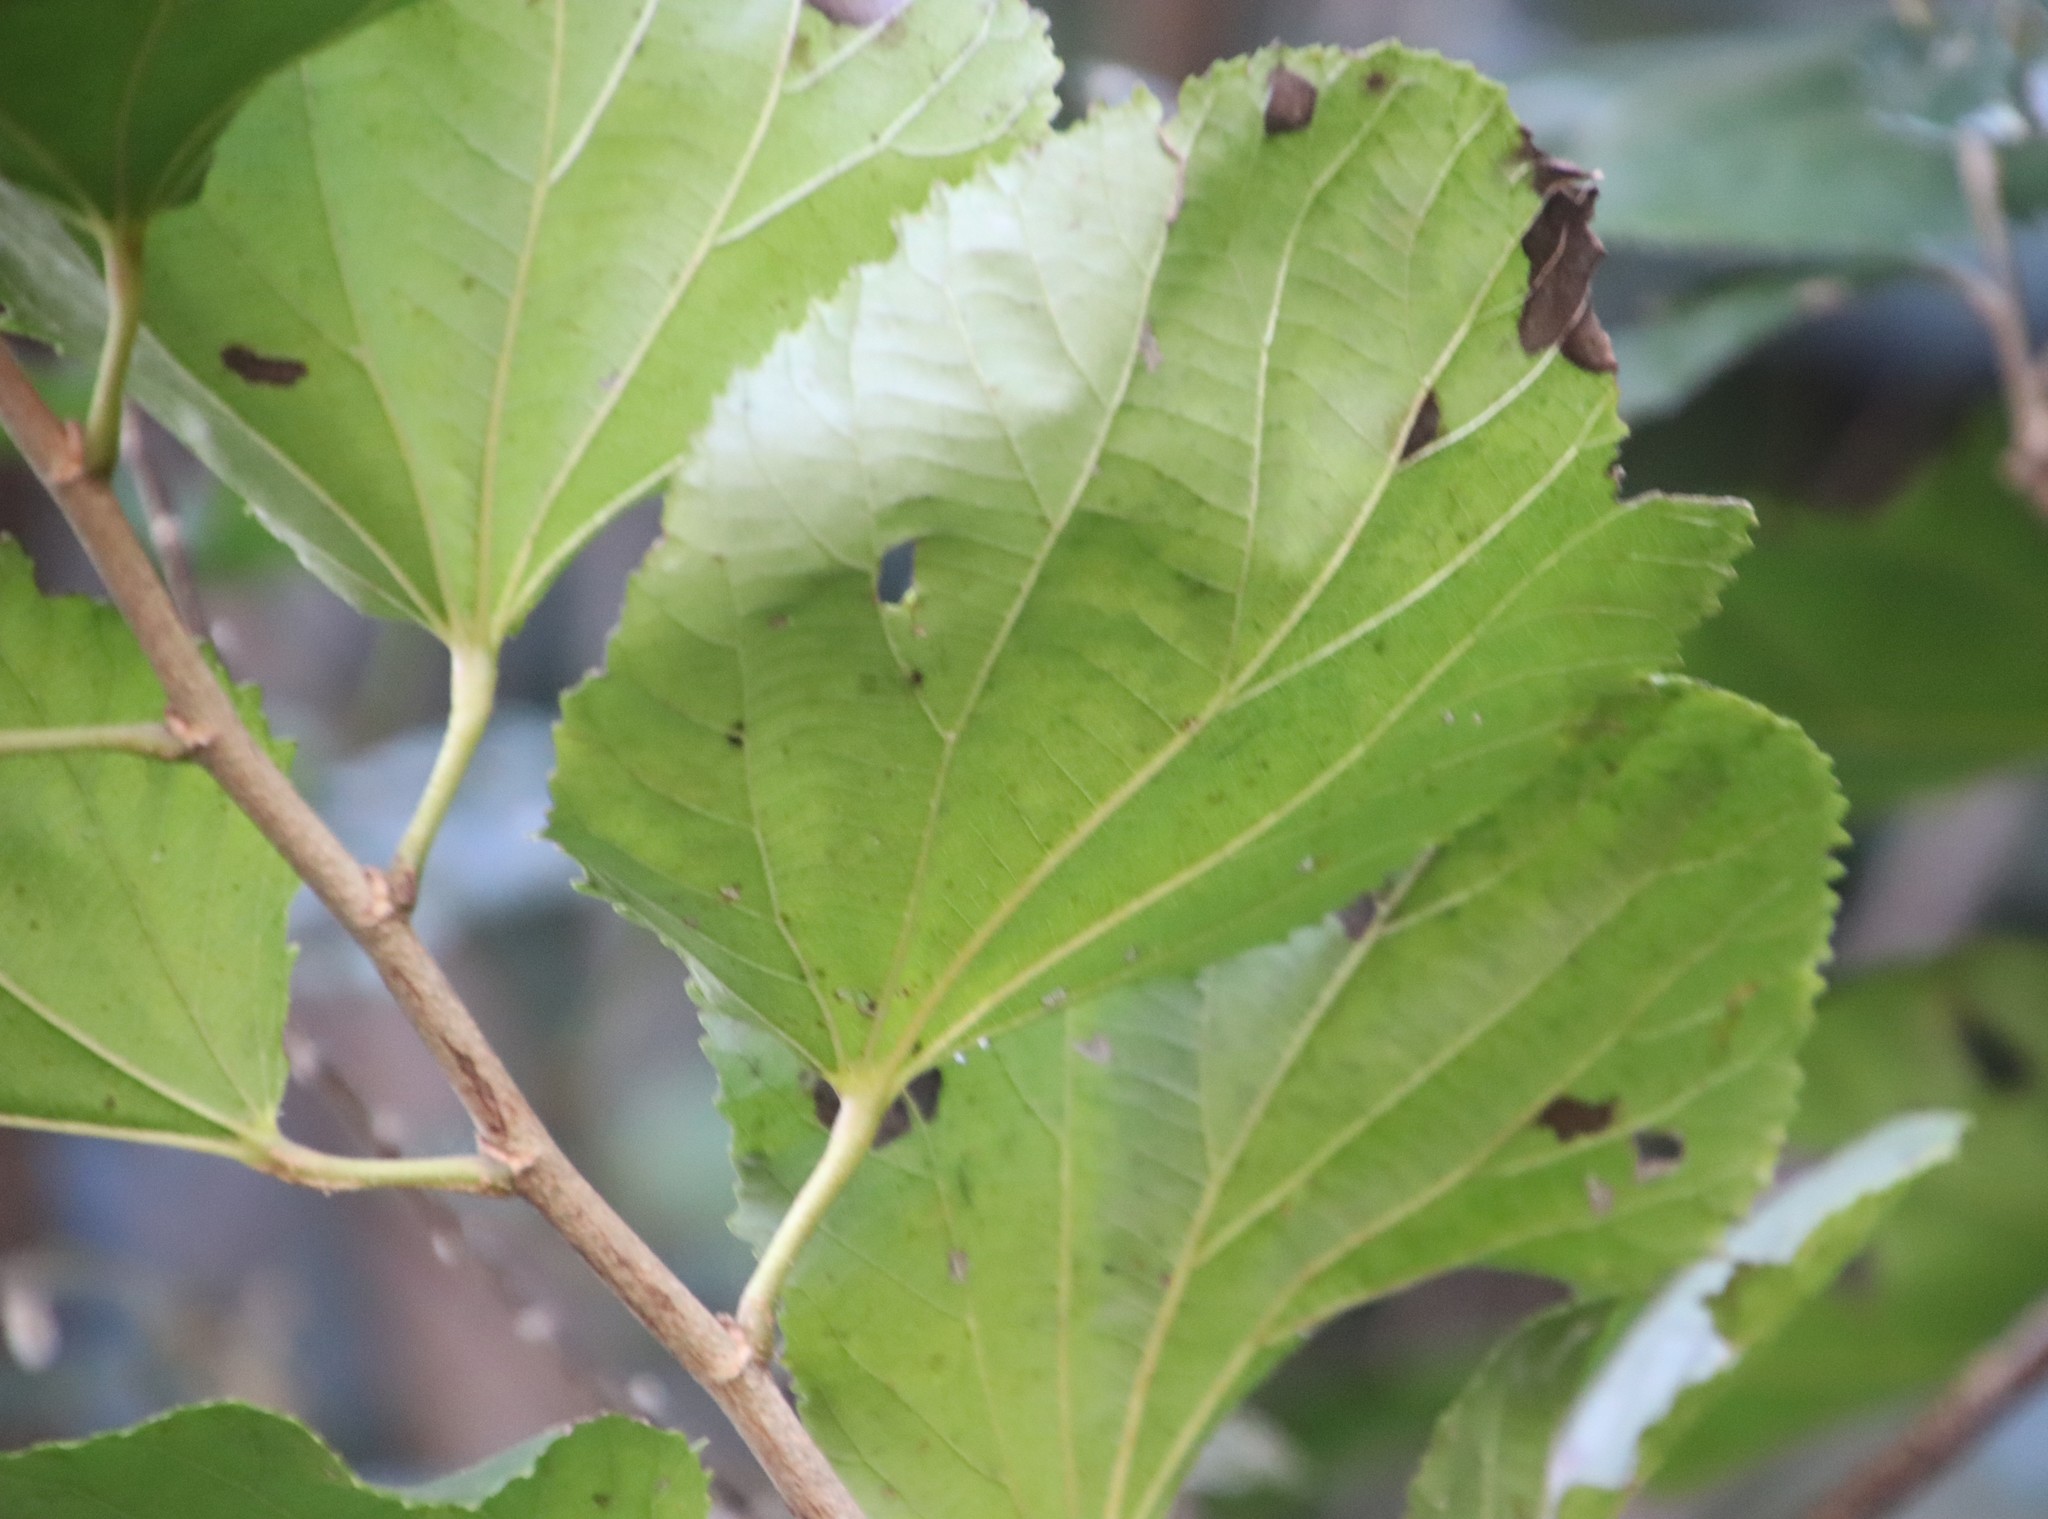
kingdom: Plantae
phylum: Tracheophyta
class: Magnoliopsida
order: Malpighiales
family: Salicaceae
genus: Trimeria
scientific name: Trimeria grandifolia
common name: Wild mulberry
